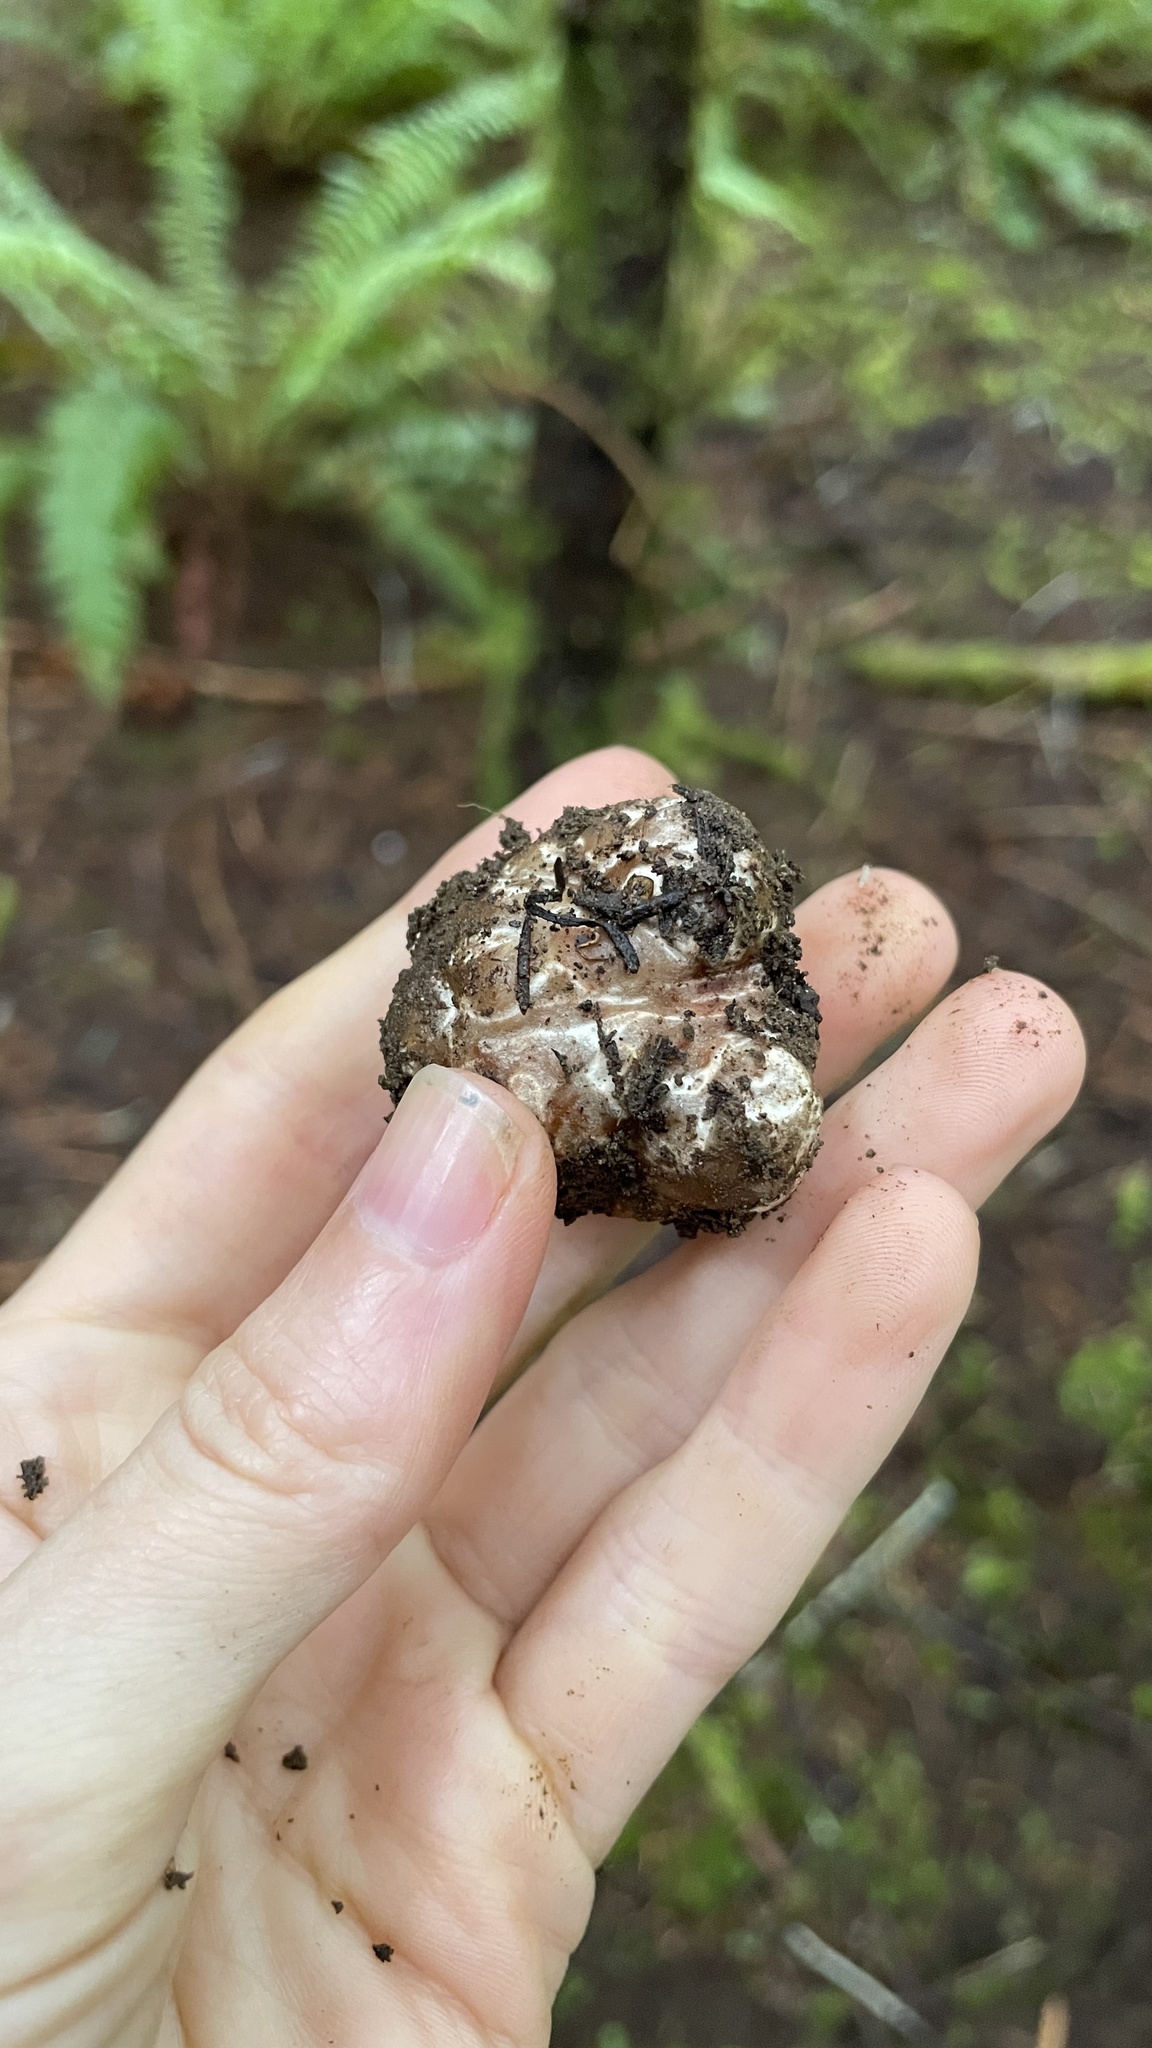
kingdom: Fungi
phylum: Ascomycota
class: Pezizomycetes
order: Pezizales
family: Tuberaceae
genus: Tuber
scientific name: Tuber gibbosum
